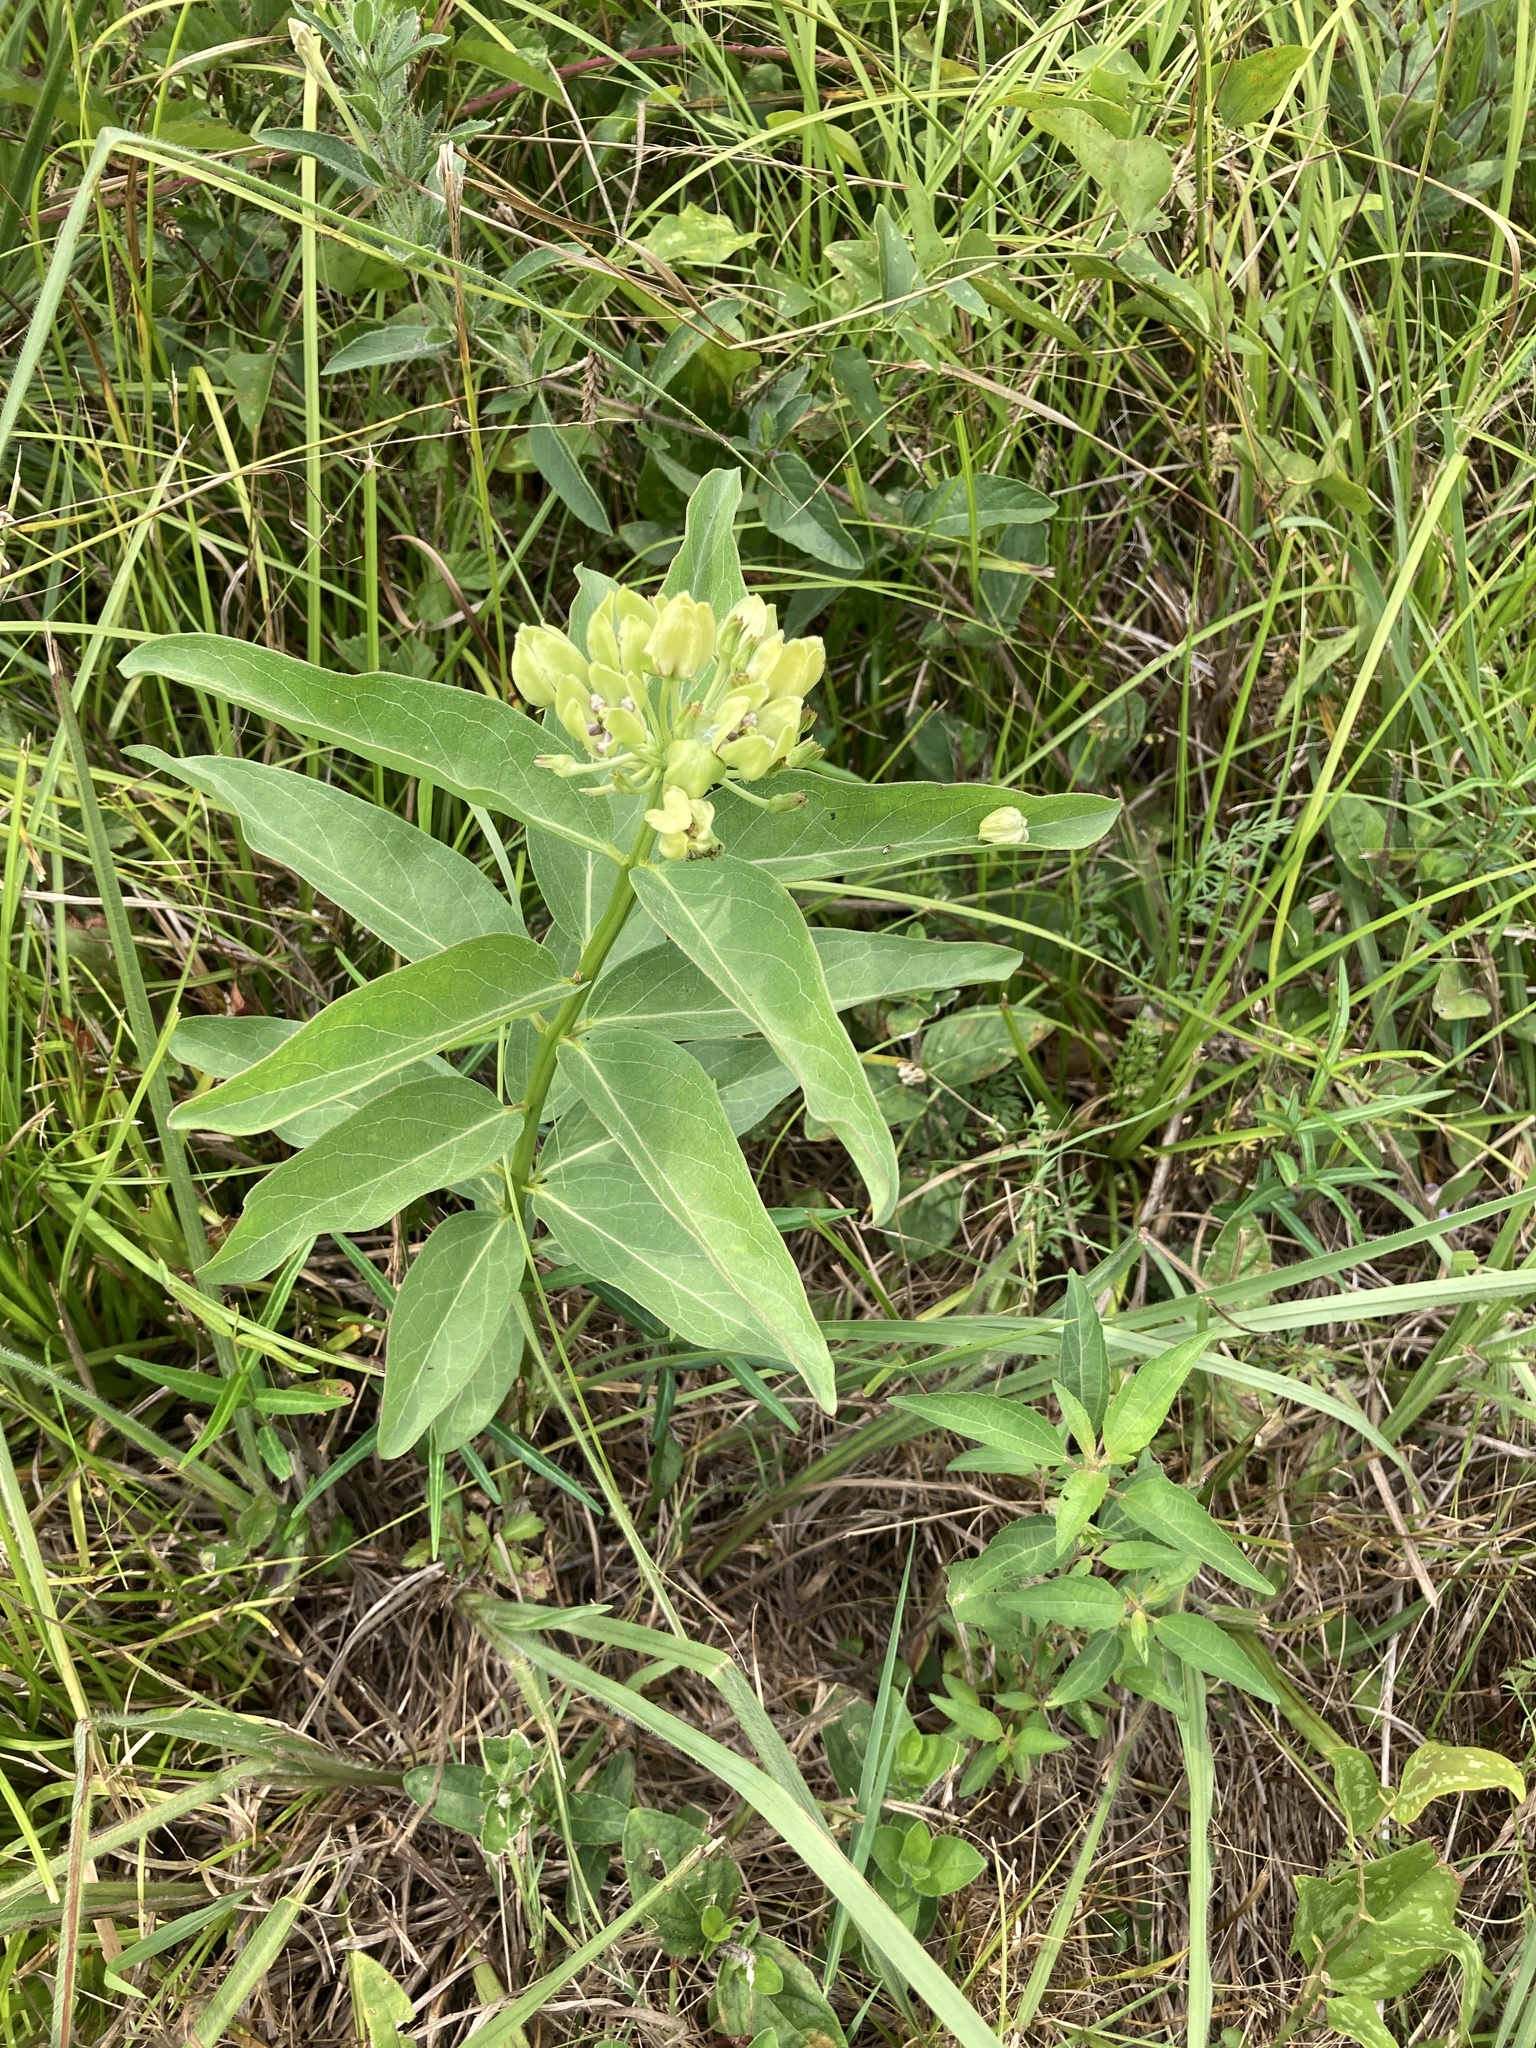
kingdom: Plantae
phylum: Tracheophyta
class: Magnoliopsida
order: Gentianales
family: Apocynaceae
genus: Asclepias
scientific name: Asclepias viridis
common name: Antelope-horns
